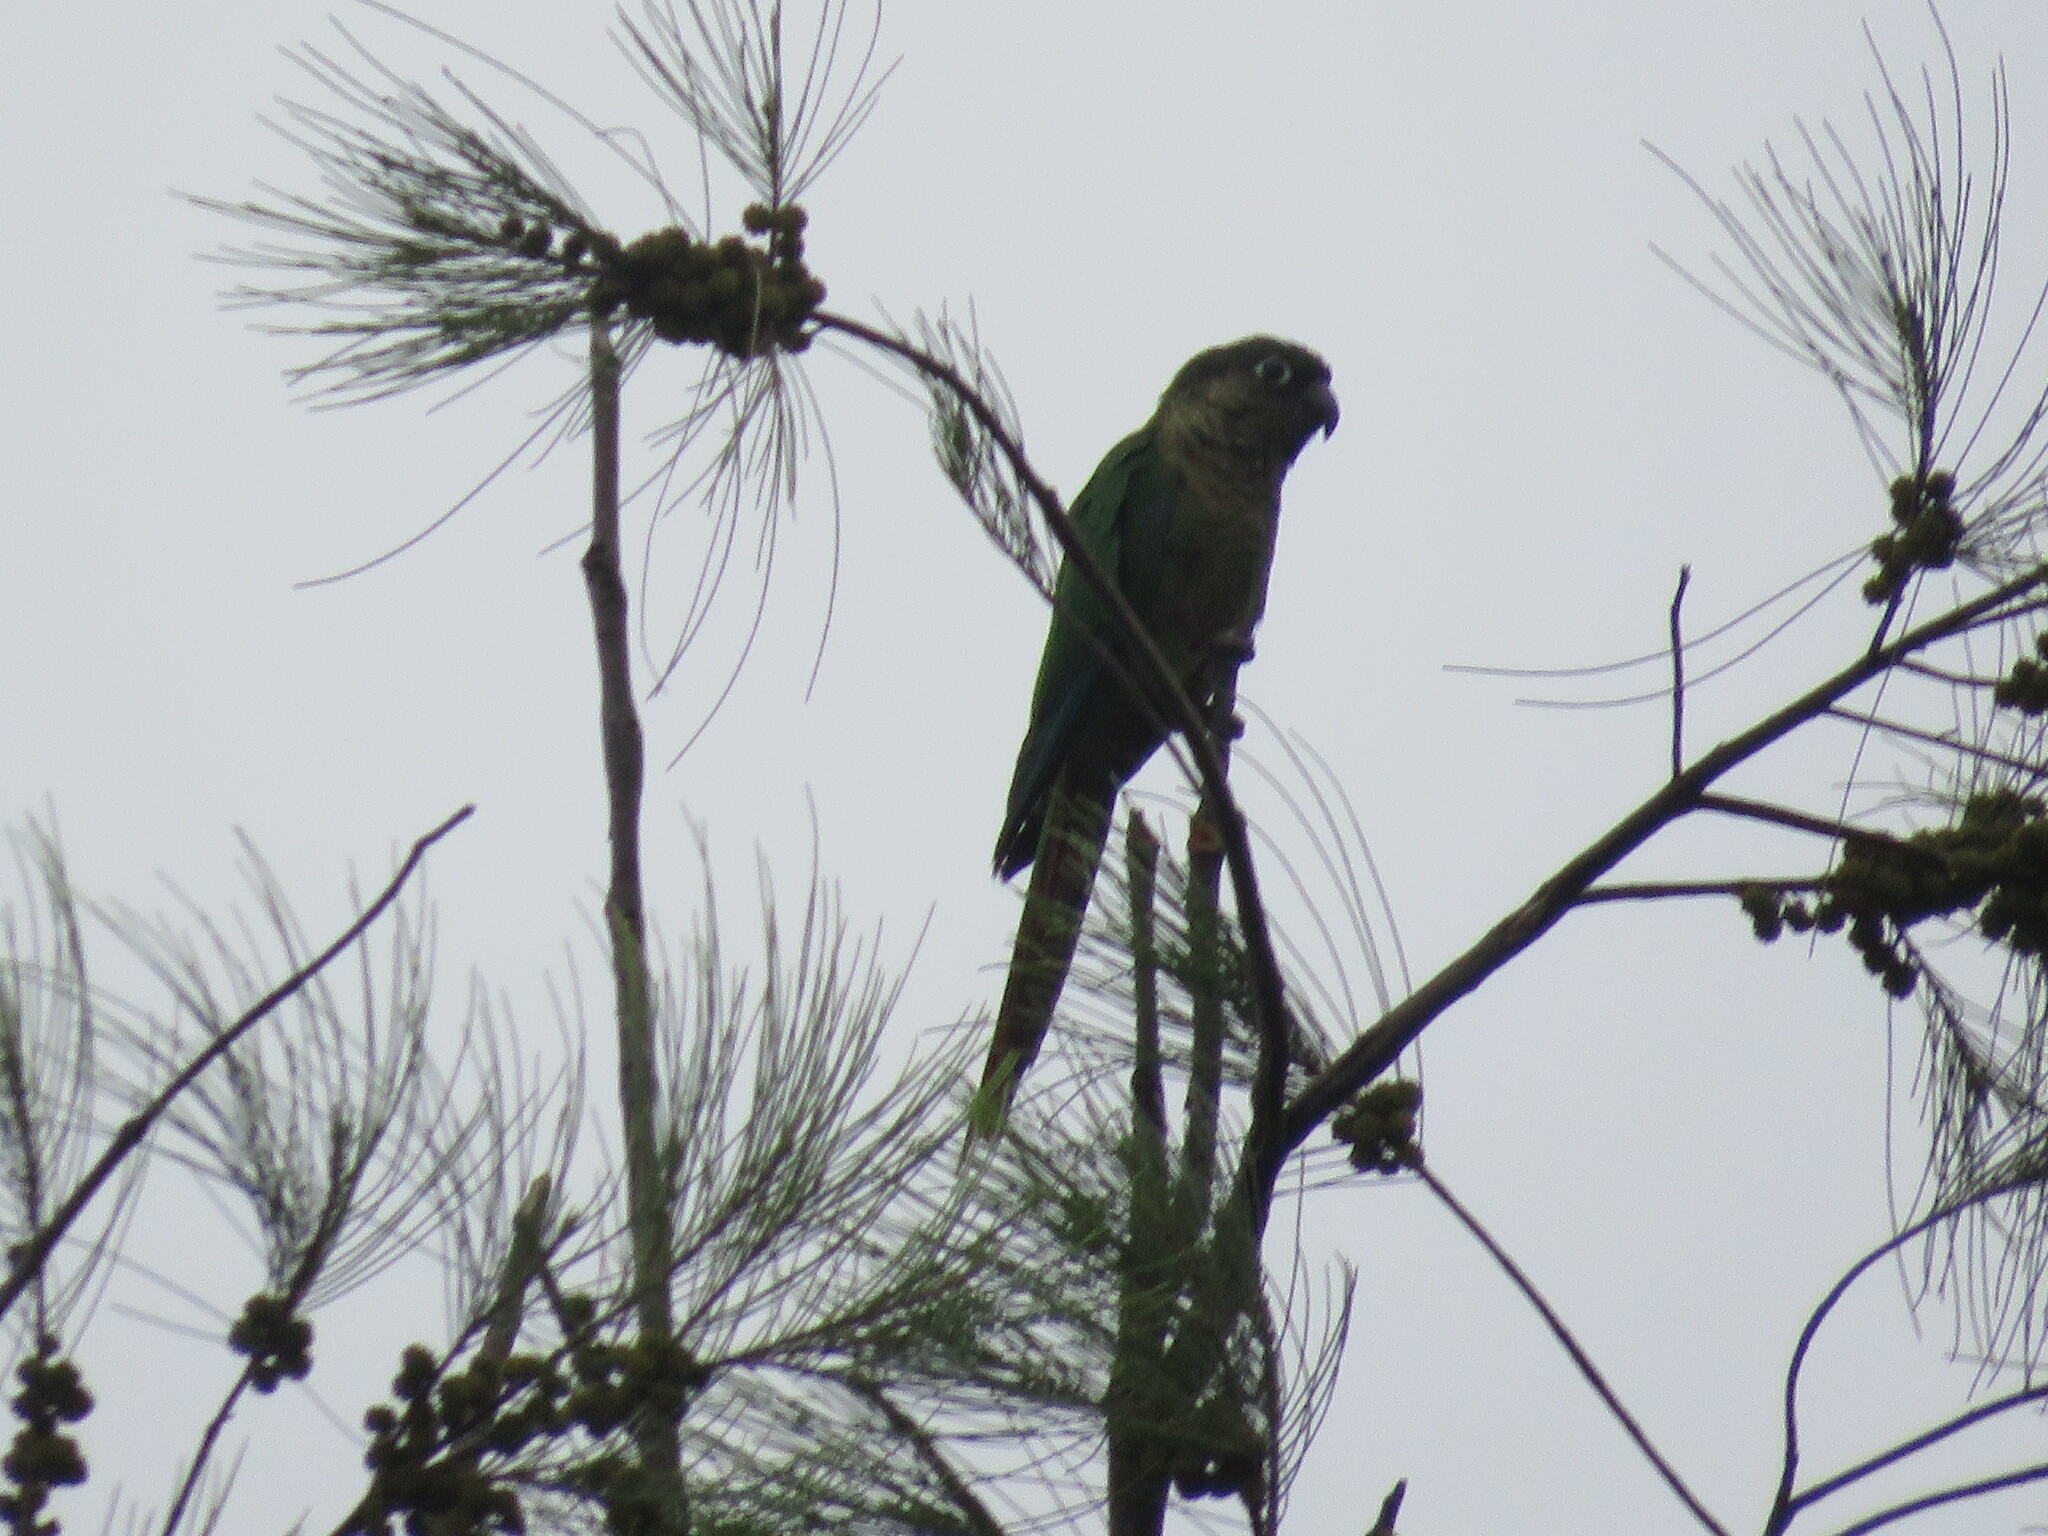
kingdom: Animalia
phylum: Chordata
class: Aves
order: Psittaciformes
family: Psittacidae
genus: Pyrrhura
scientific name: Pyrrhura frontalis
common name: Maroon-bellied parakeet
